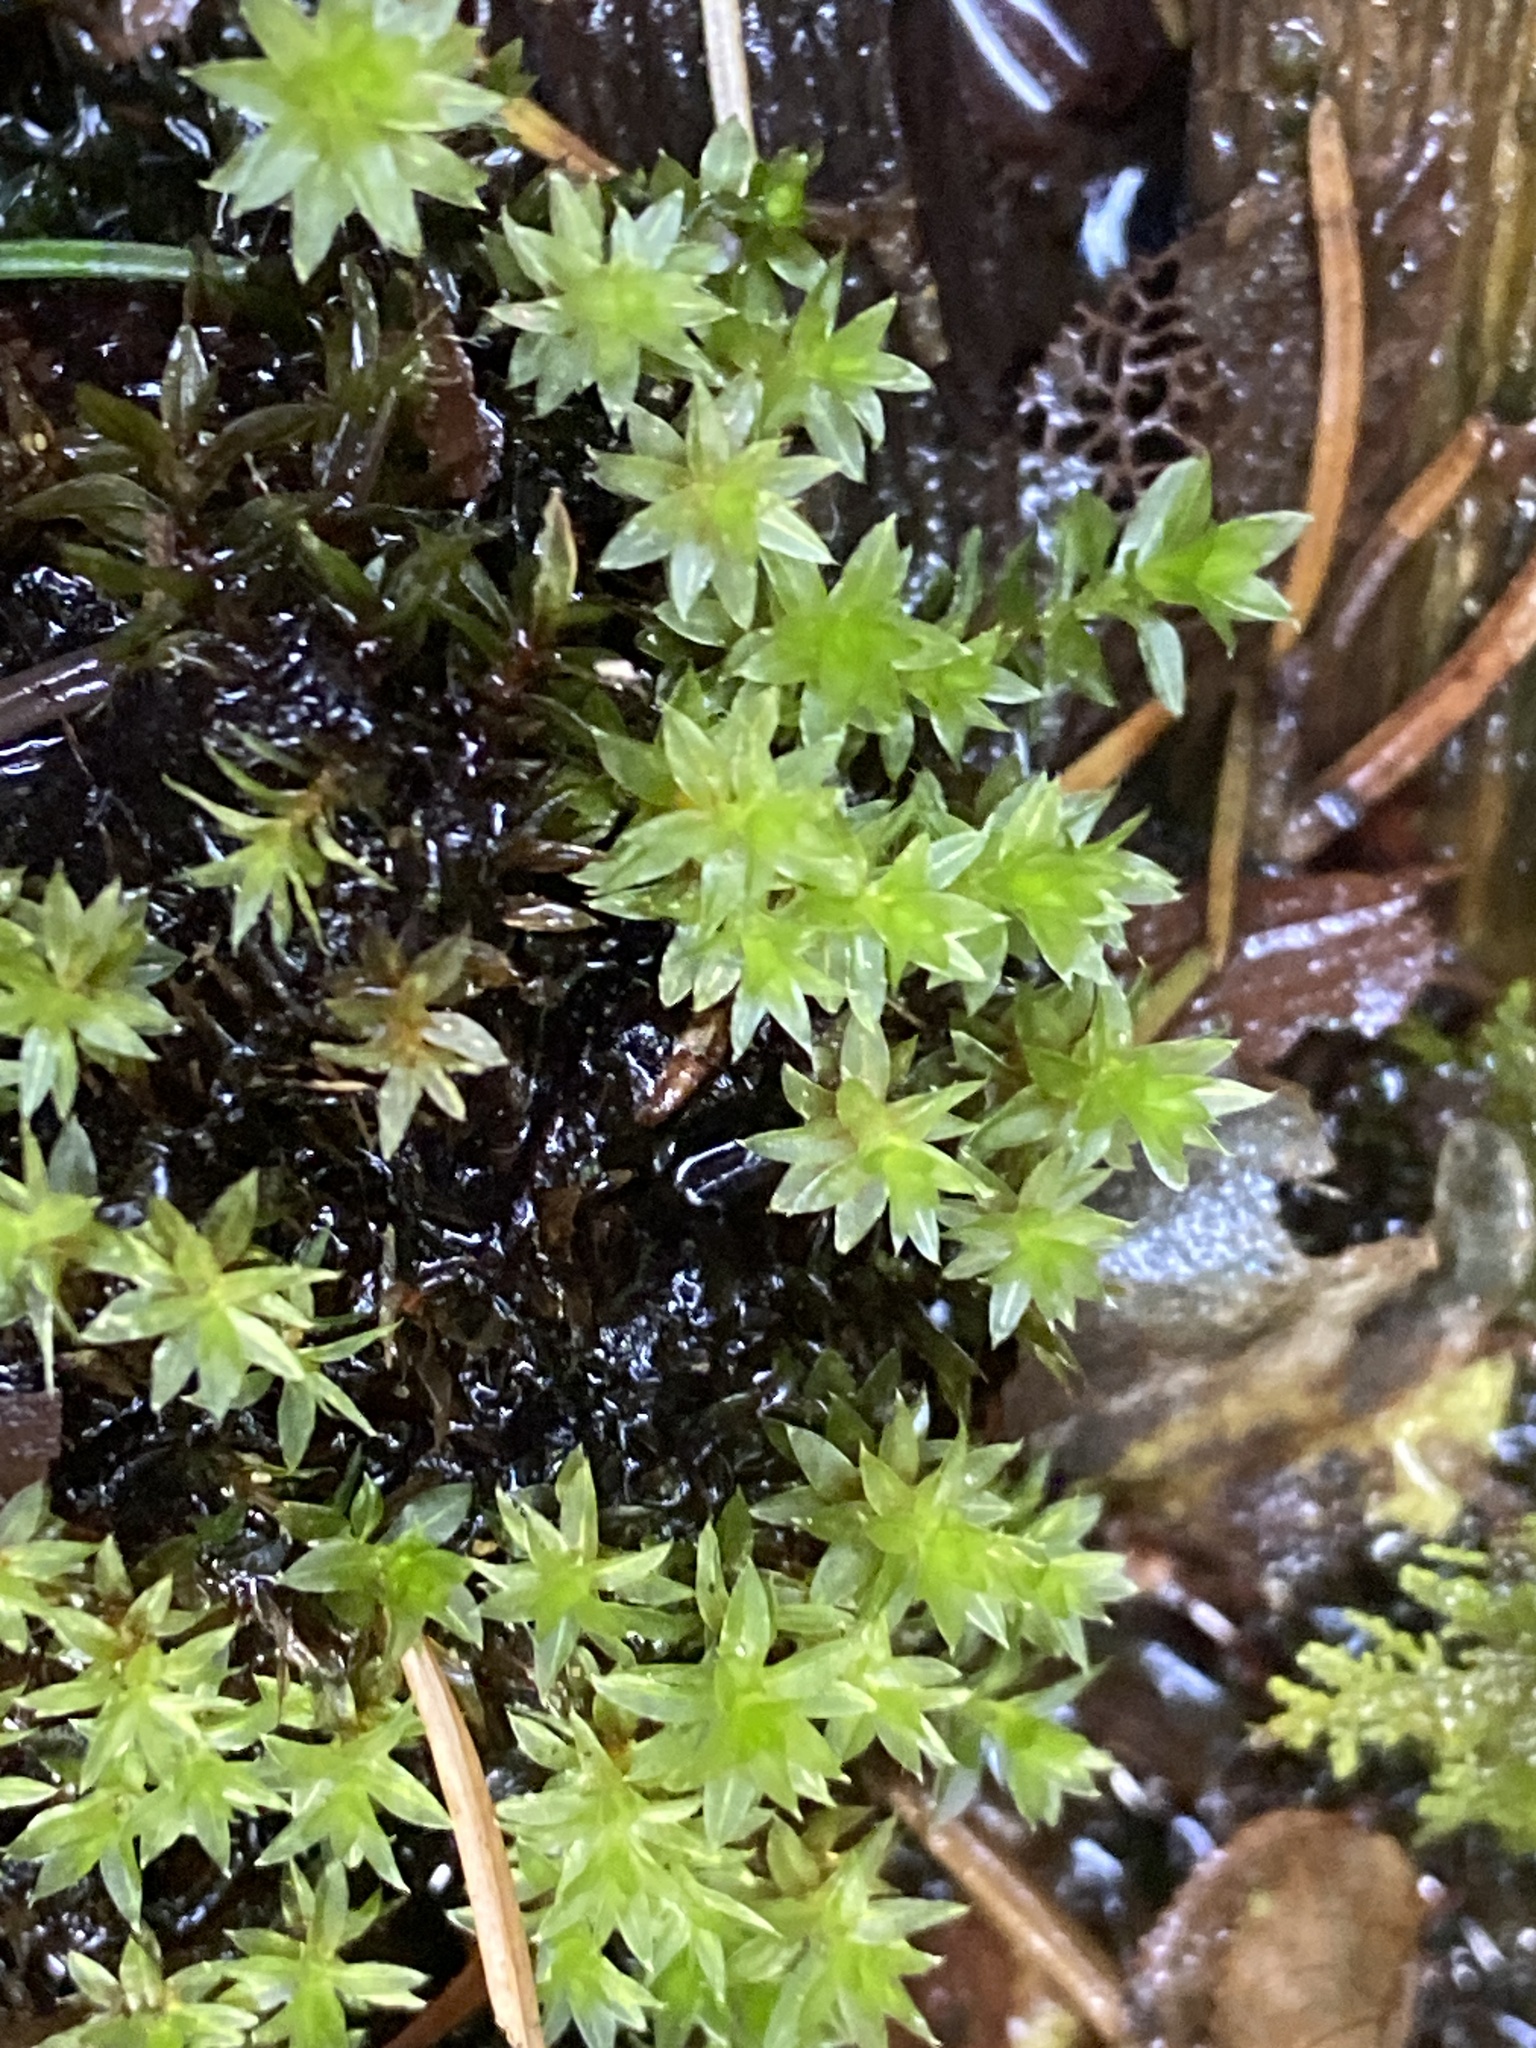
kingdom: Plantae
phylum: Bryophyta
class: Bryopsida
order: Bryales
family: Bryaceae
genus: Ptychostomum
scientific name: Ptychostomum pseudotriquetrum
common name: Long-leaved thread moss
